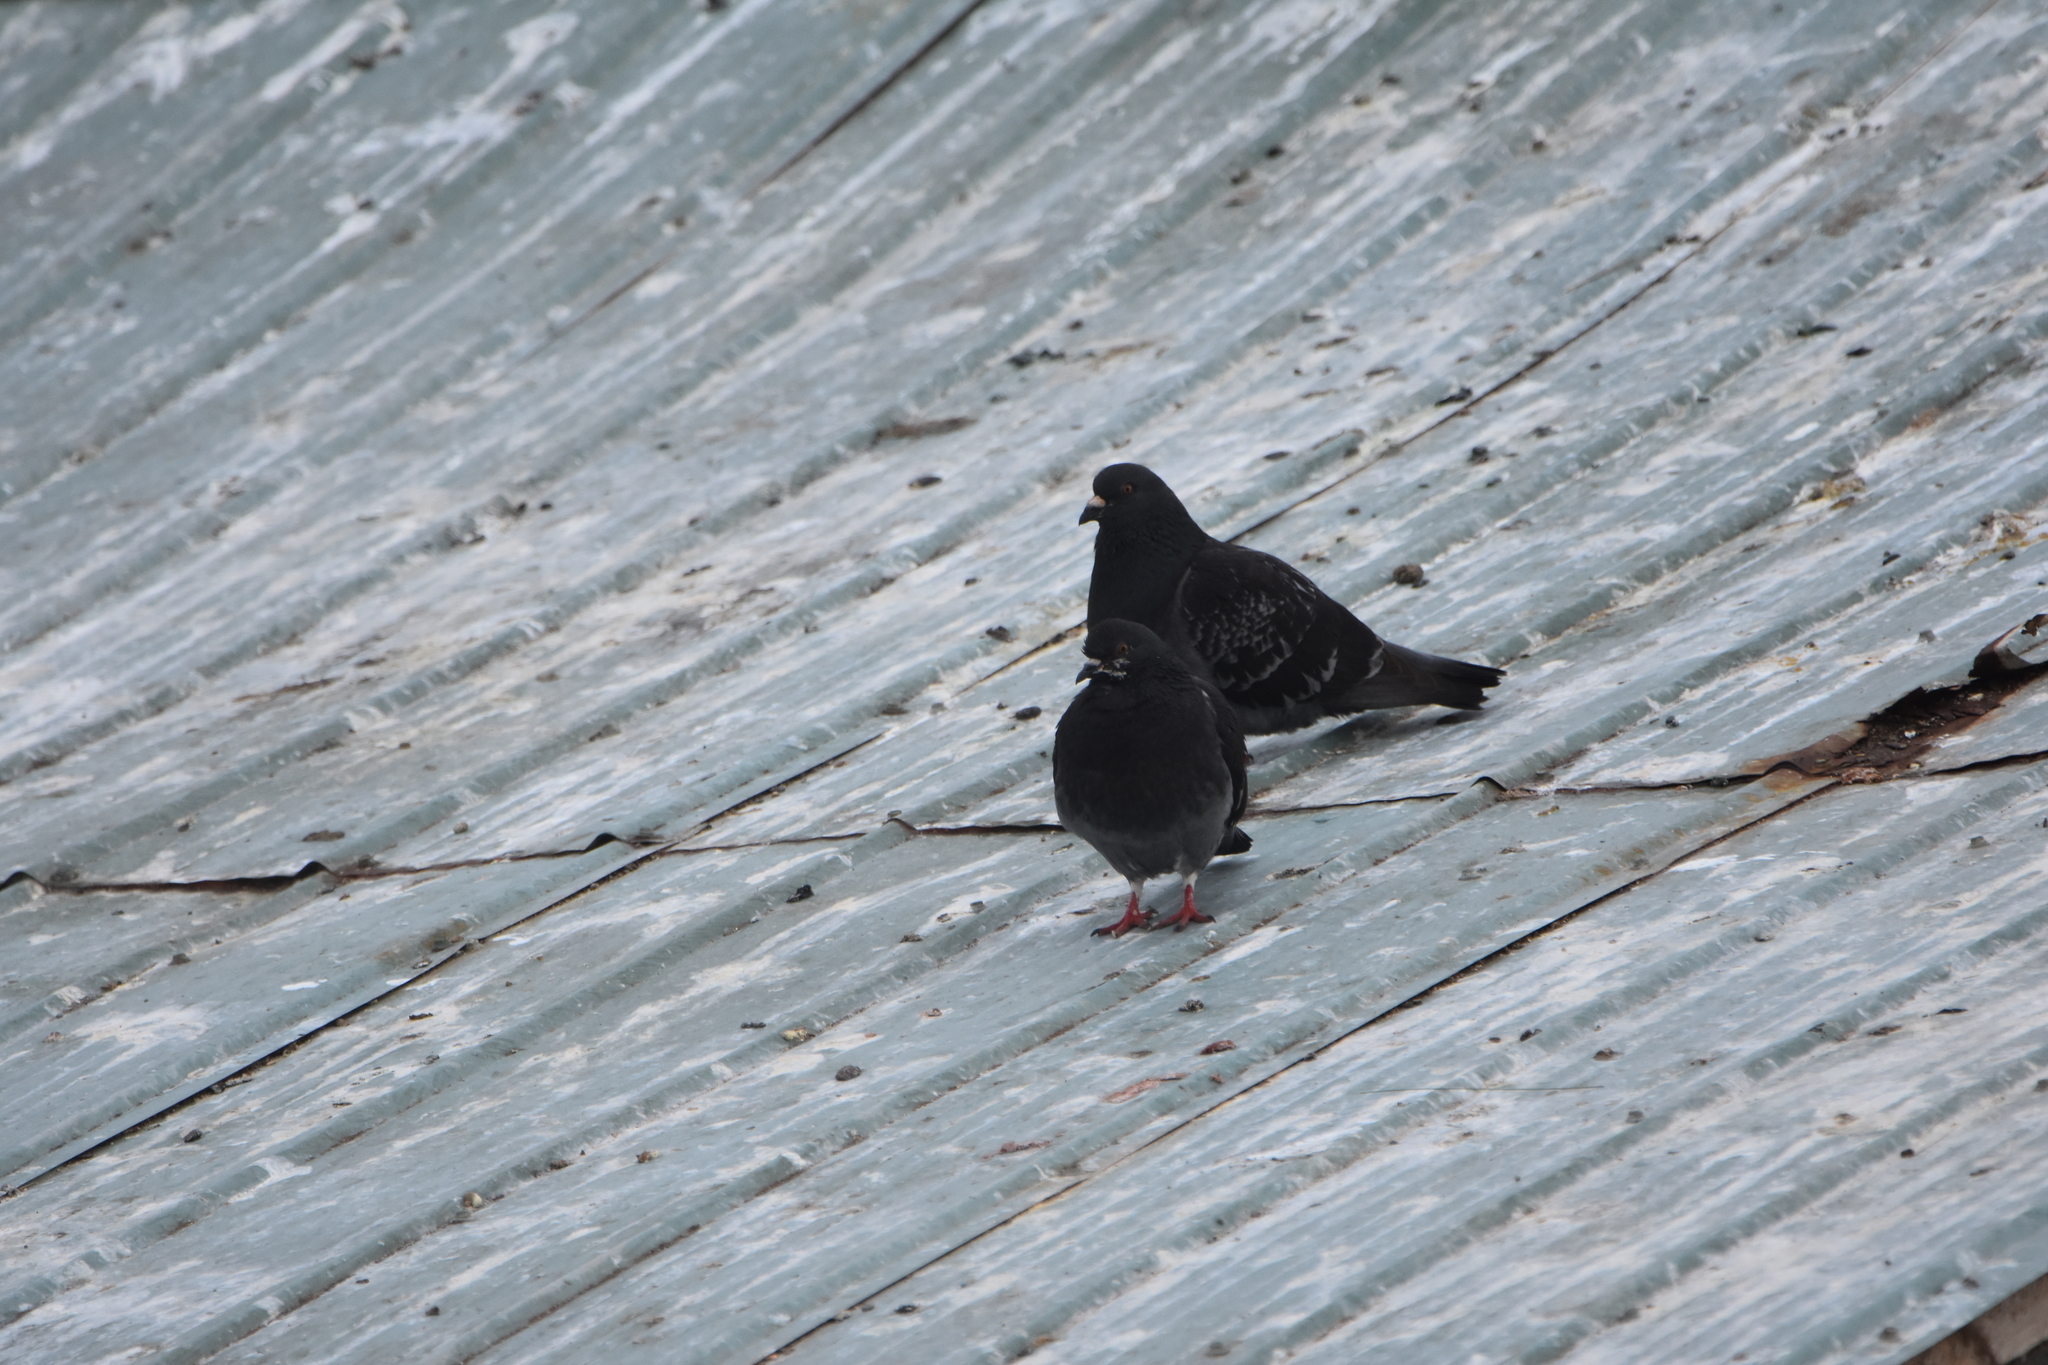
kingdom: Animalia
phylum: Chordata
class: Aves
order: Columbiformes
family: Columbidae
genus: Columba
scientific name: Columba livia
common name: Rock pigeon
